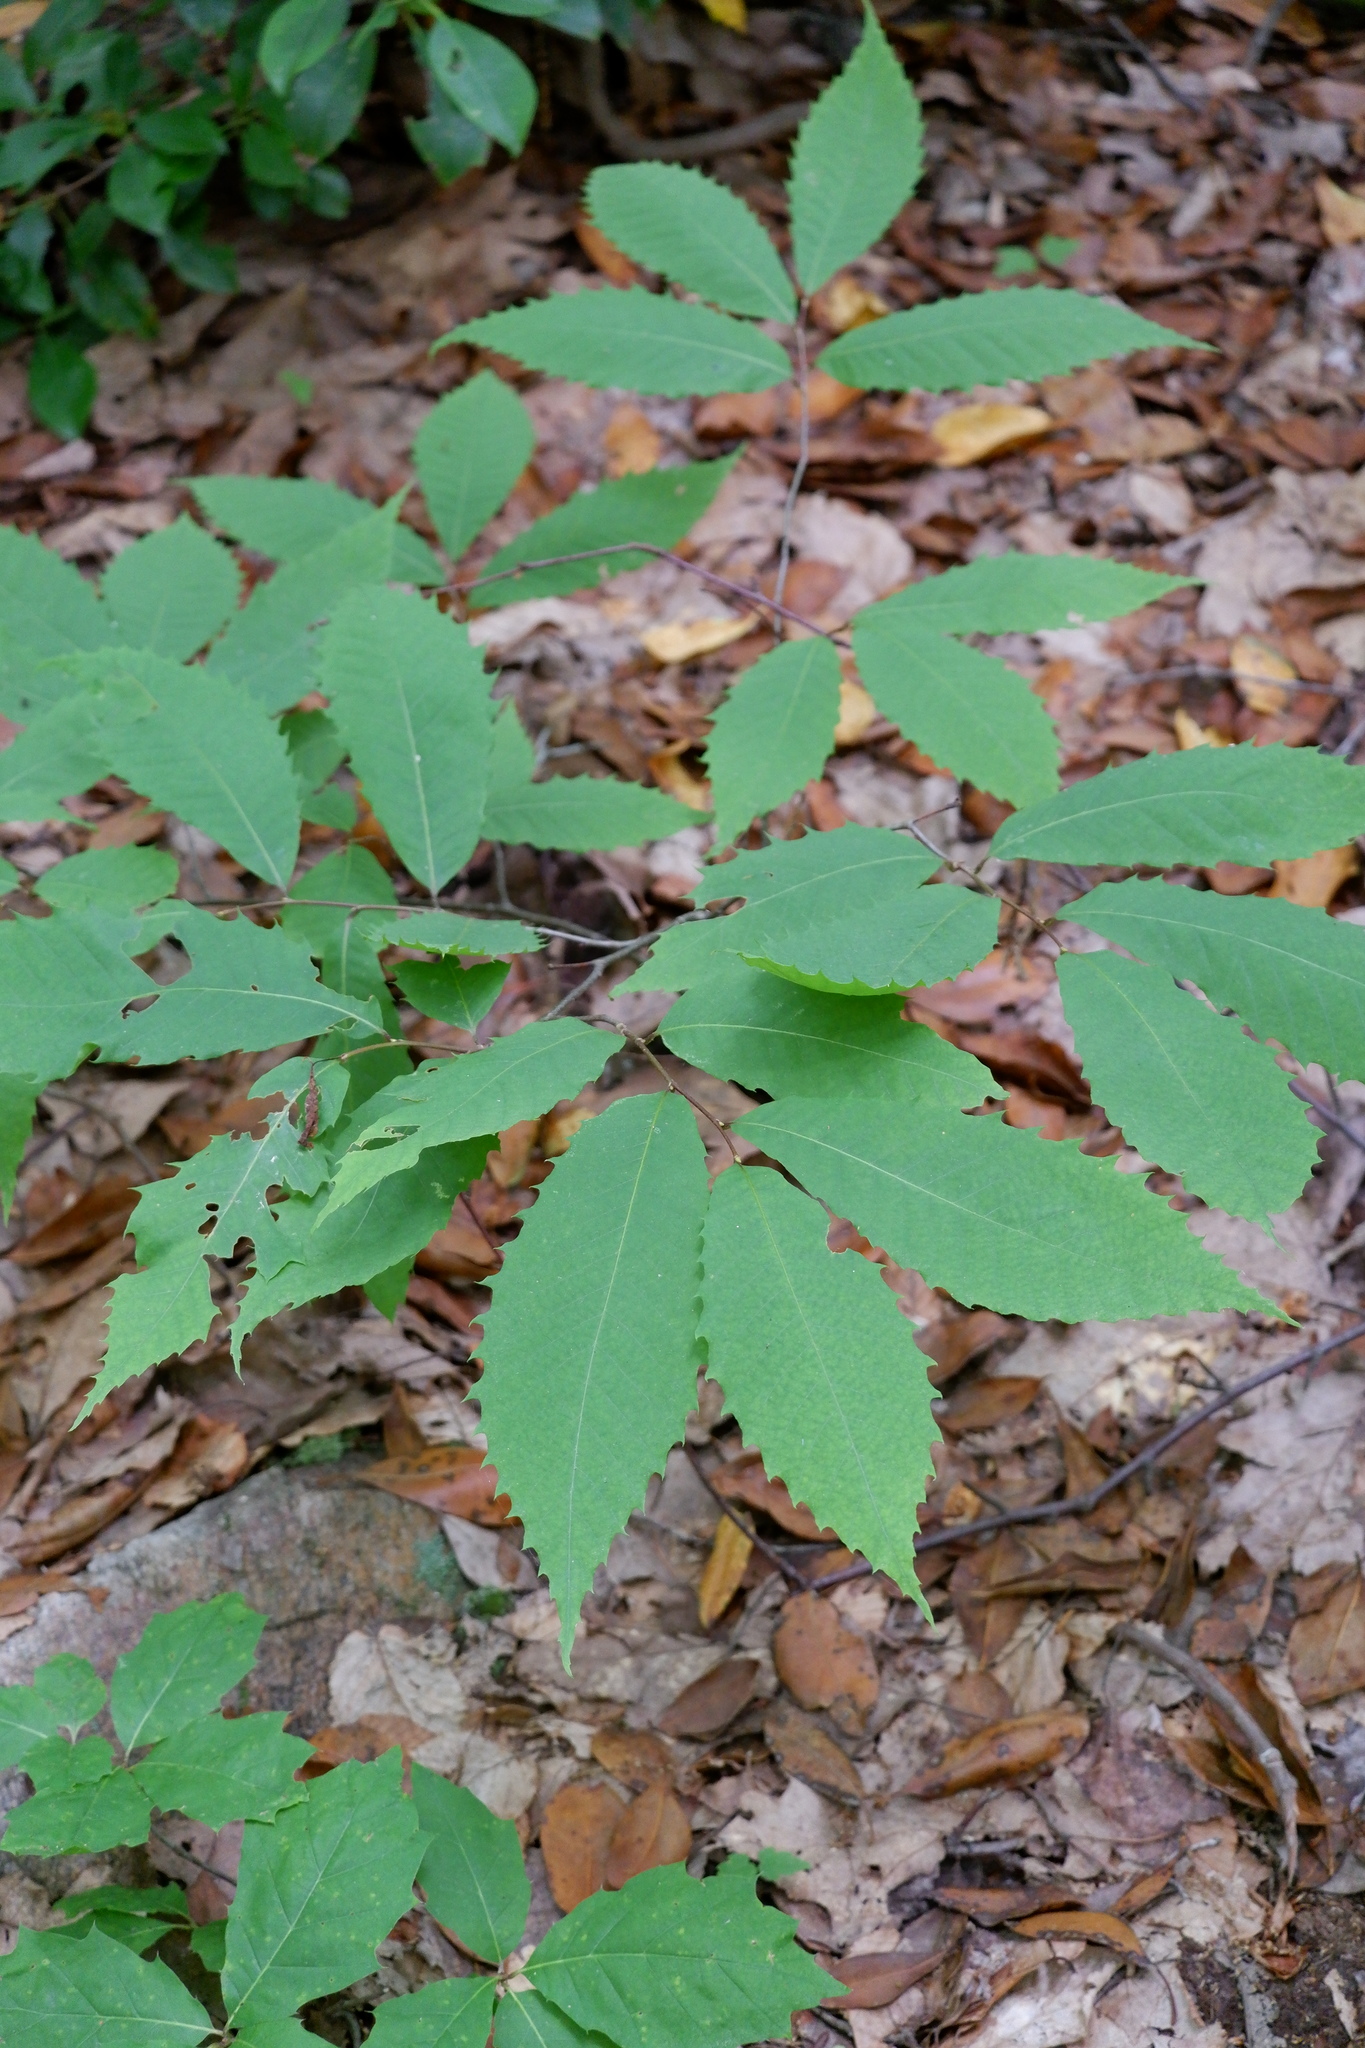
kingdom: Plantae
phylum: Tracheophyta
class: Magnoliopsida
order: Fagales
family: Fagaceae
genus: Castanea
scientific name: Castanea dentata
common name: American chestnut
